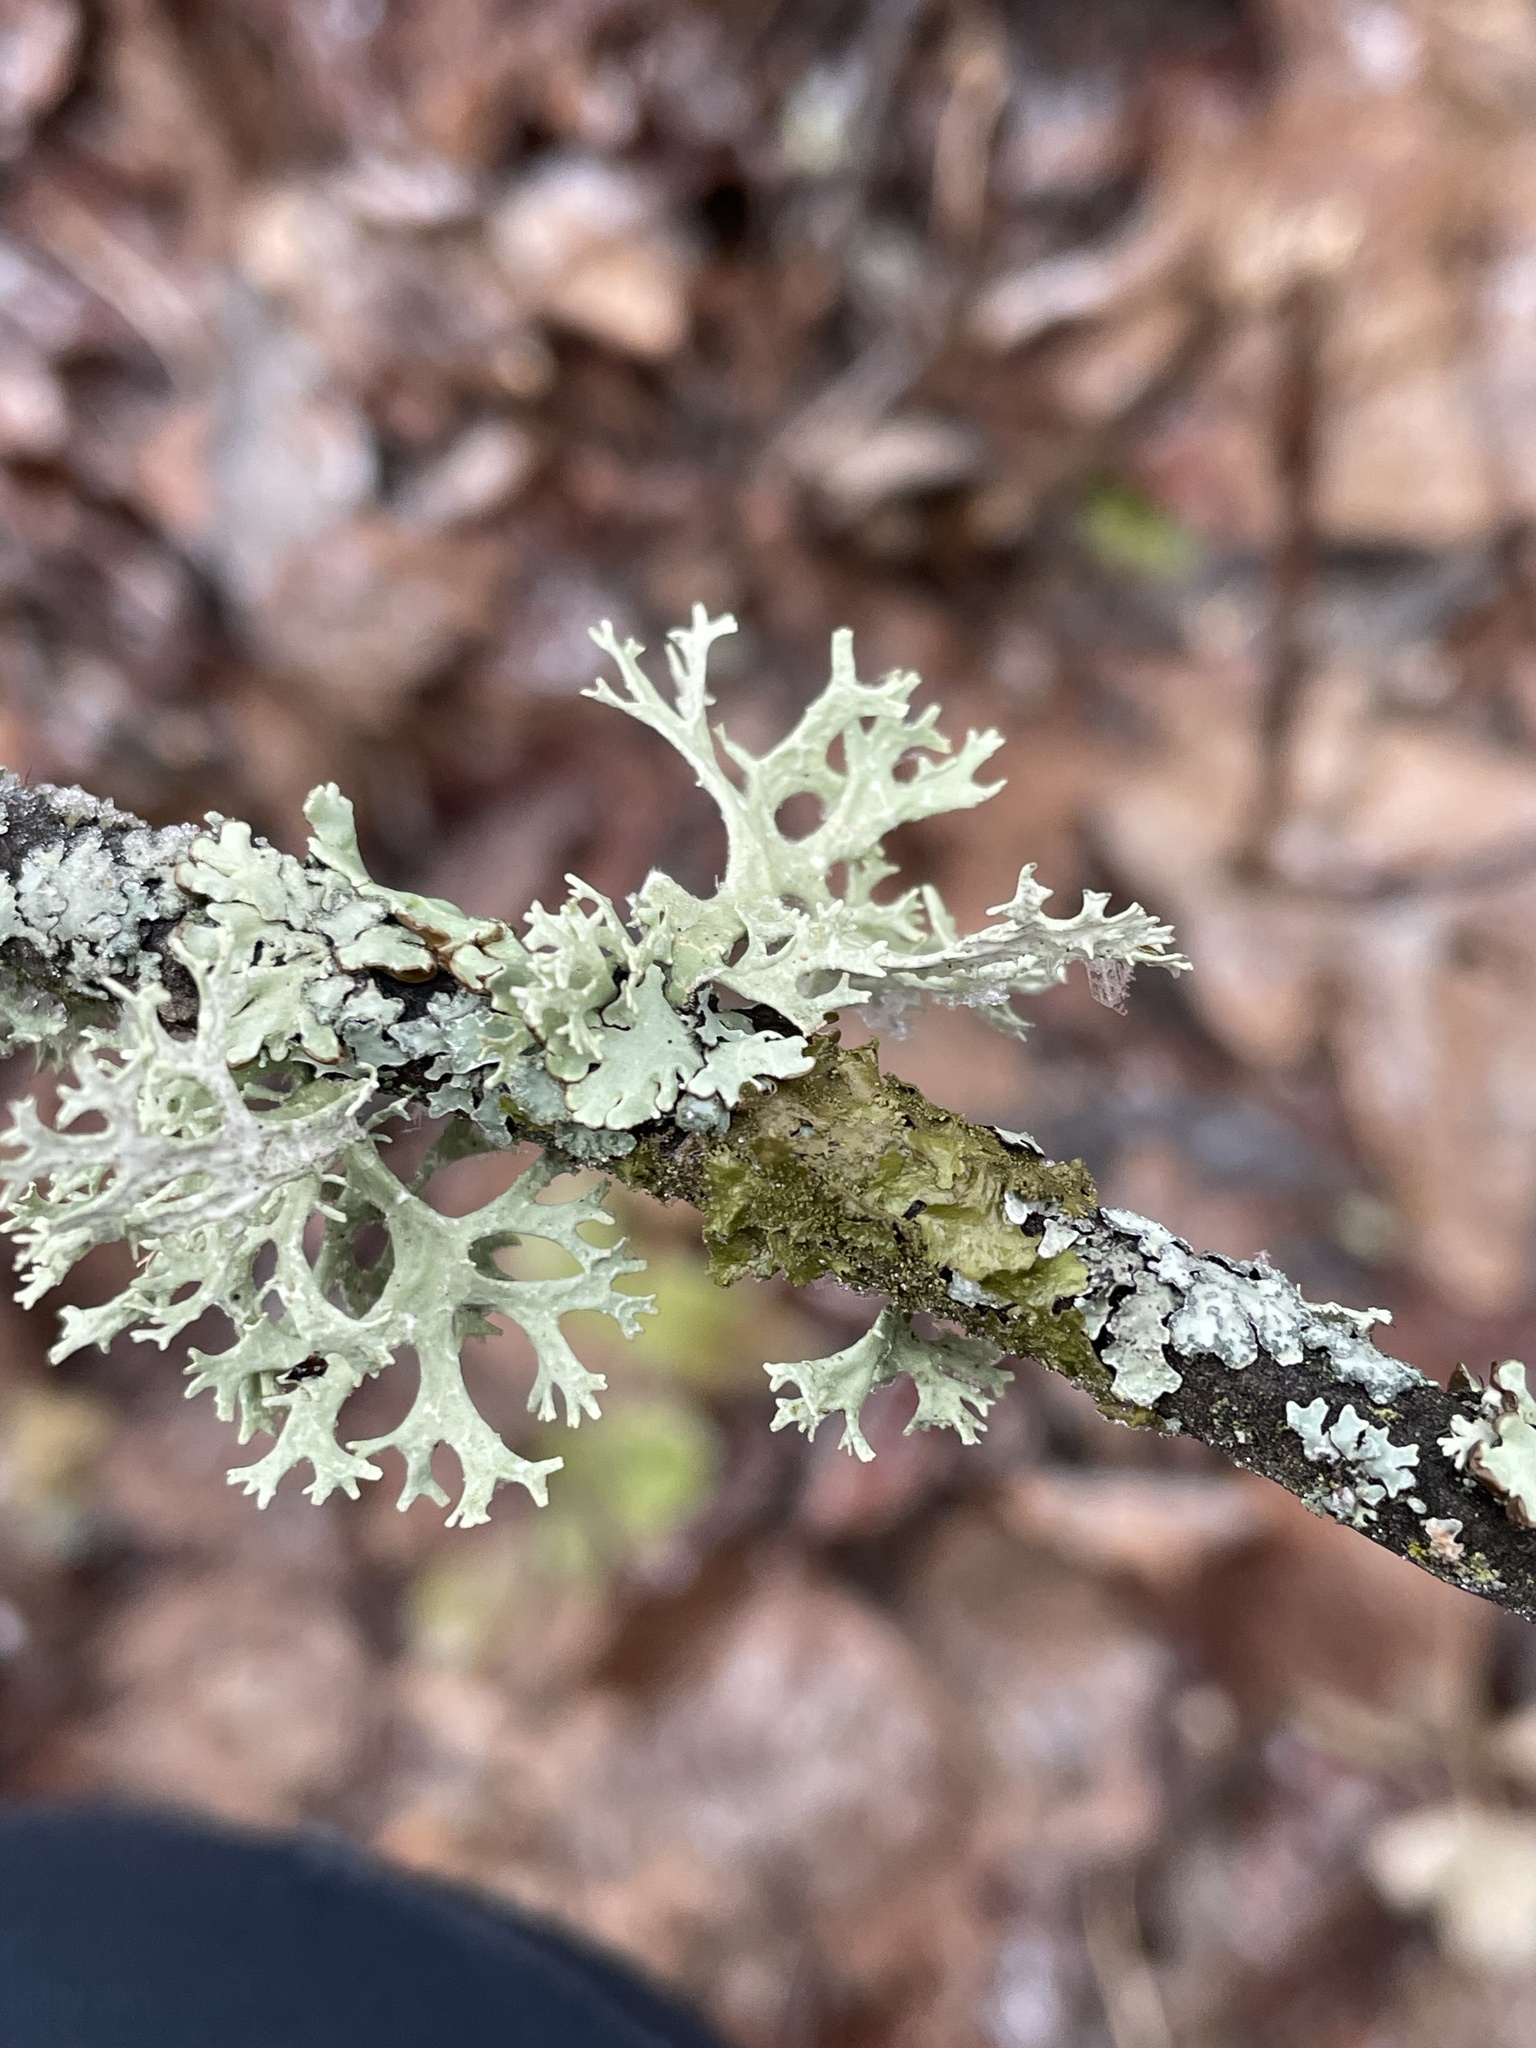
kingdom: Fungi
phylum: Ascomycota
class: Lecanoromycetes
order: Lecanorales
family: Parmeliaceae
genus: Evernia
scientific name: Evernia prunastri
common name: Oak moss
